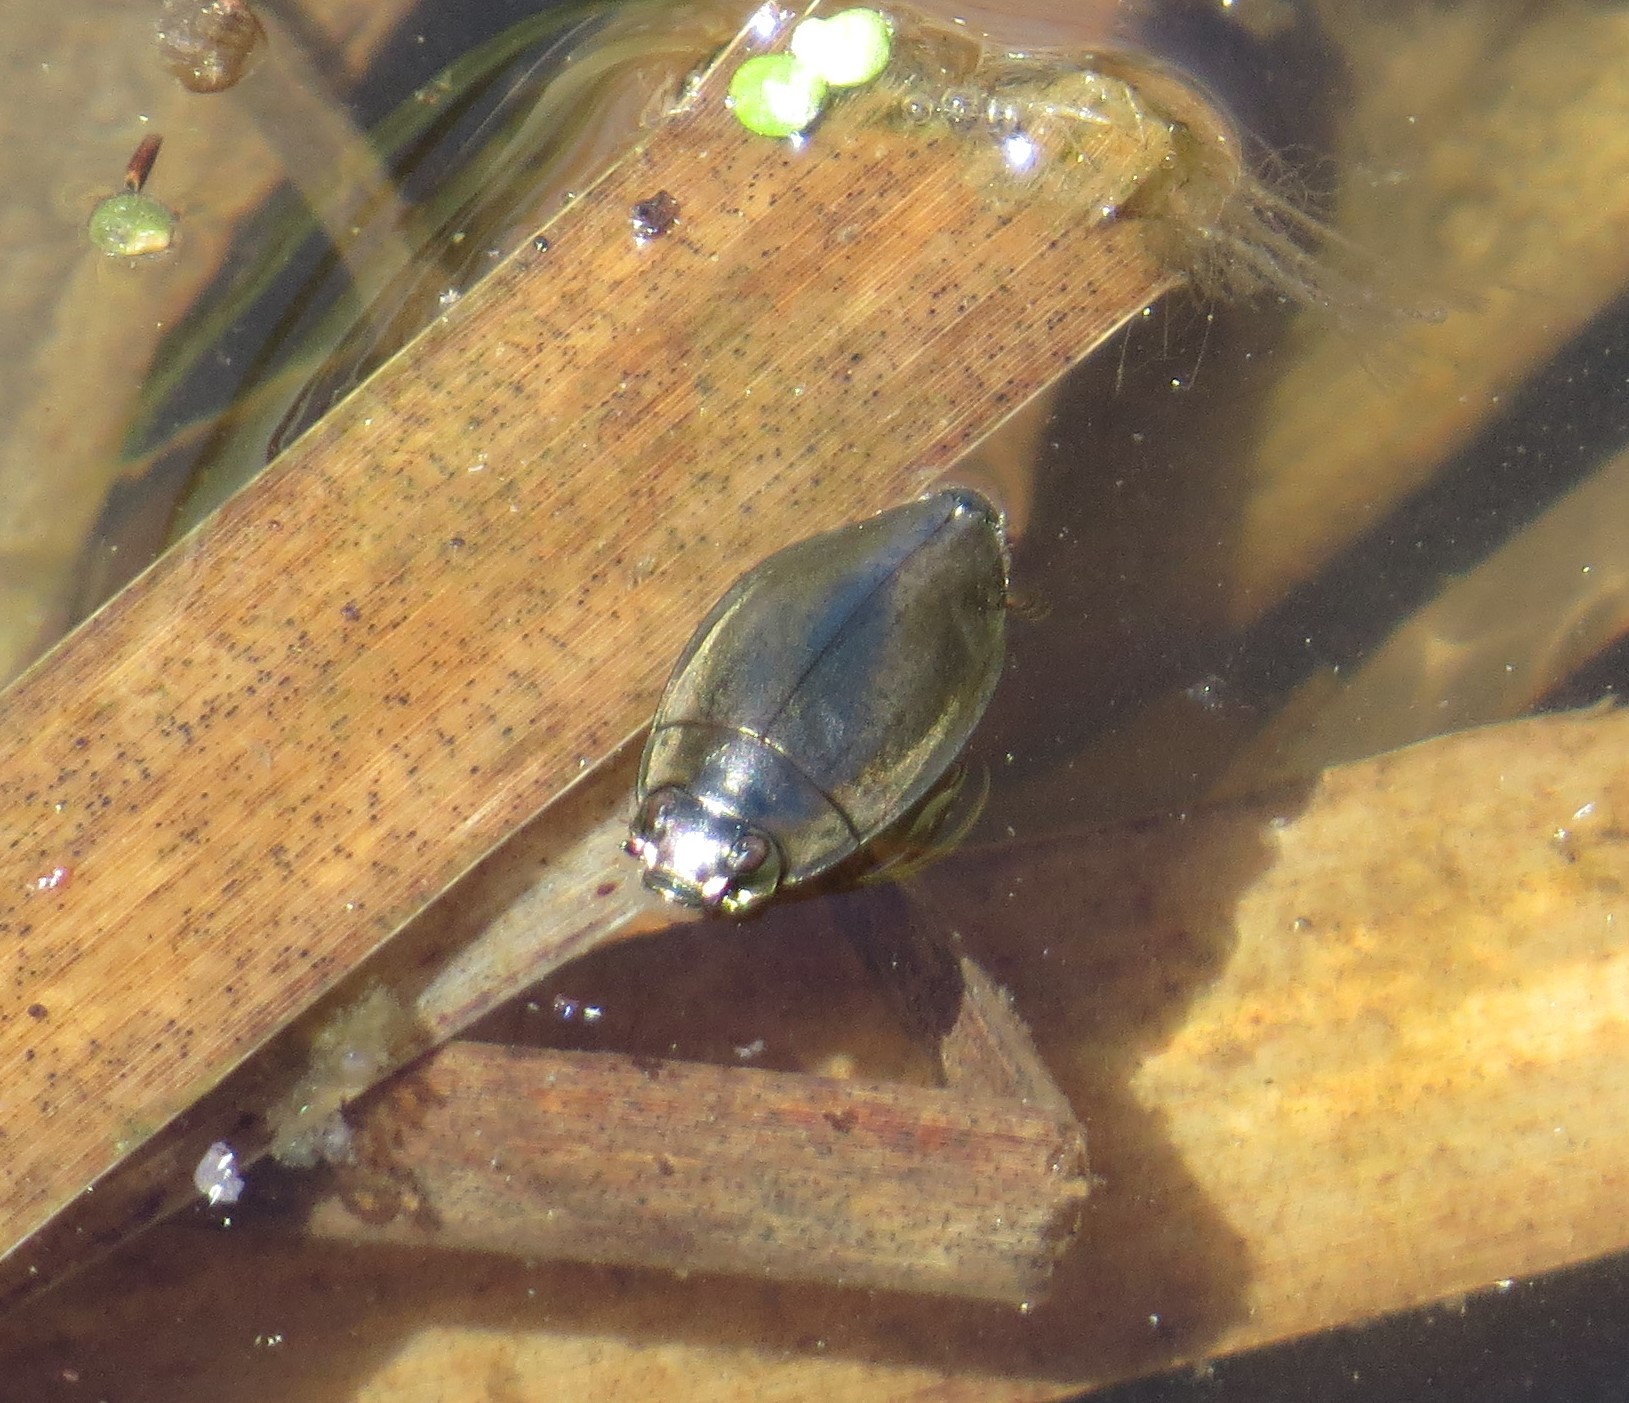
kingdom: Animalia
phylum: Arthropoda
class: Insecta
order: Coleoptera
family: Gyrinidae
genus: Dineutus
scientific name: Dineutus
